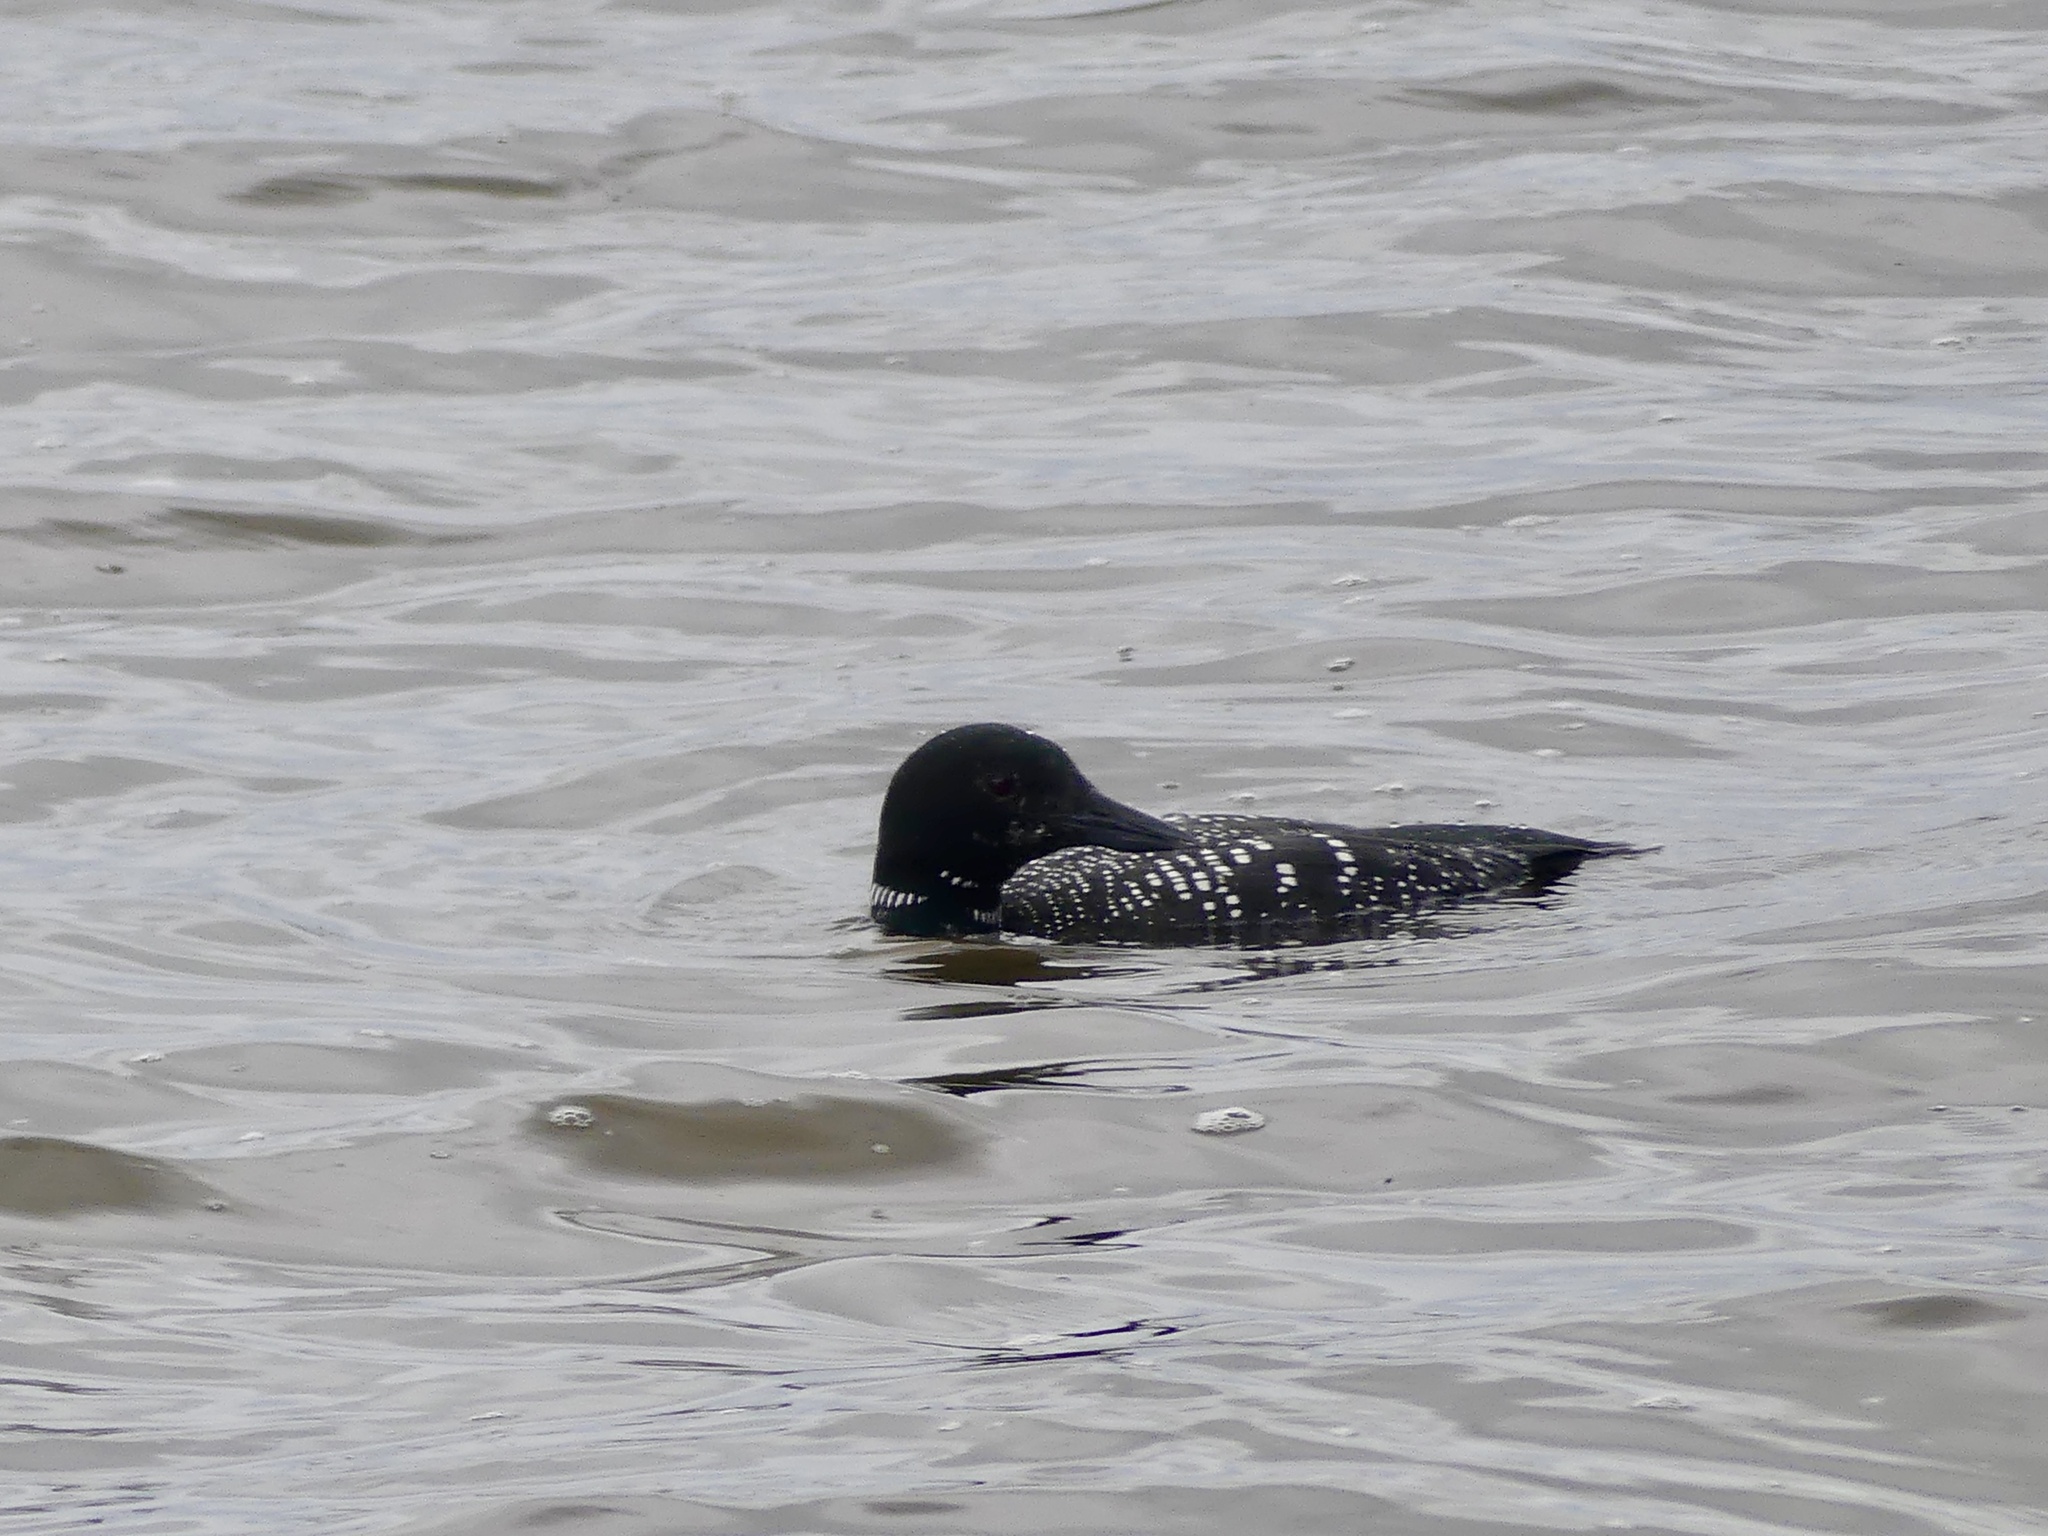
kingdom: Animalia
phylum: Chordata
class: Aves
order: Gaviiformes
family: Gaviidae
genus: Gavia
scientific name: Gavia immer
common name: Common loon
